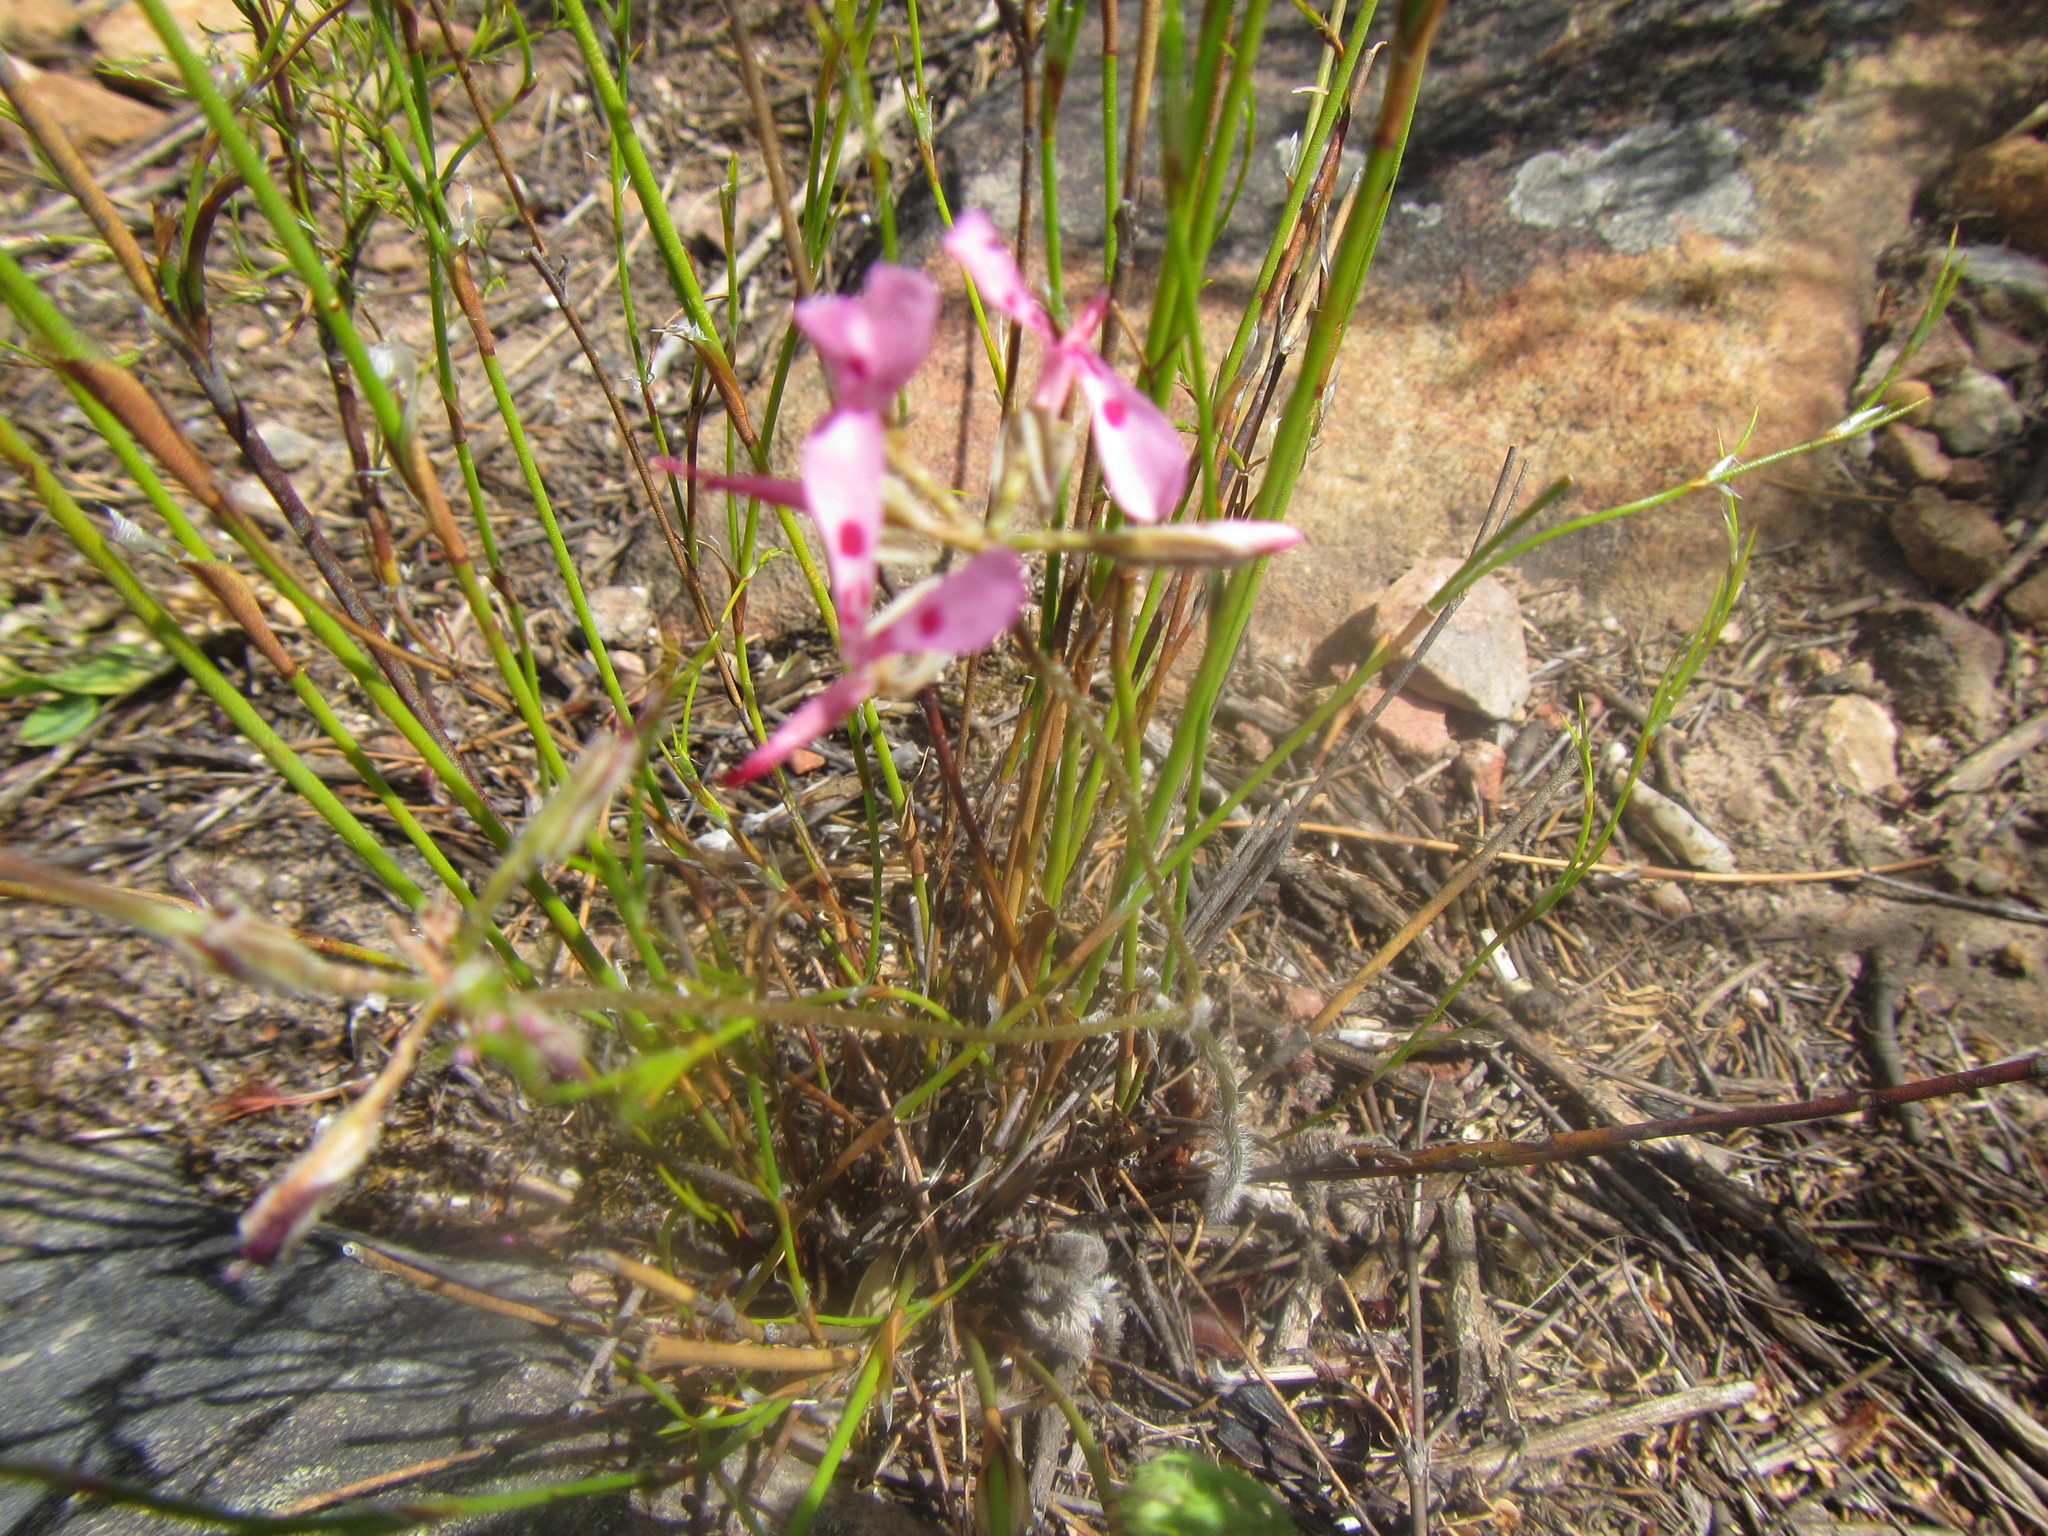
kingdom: Plantae
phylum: Tracheophyta
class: Magnoliopsida
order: Geraniales
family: Geraniaceae
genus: Pelargonium
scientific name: Pelargonium ternifolium
